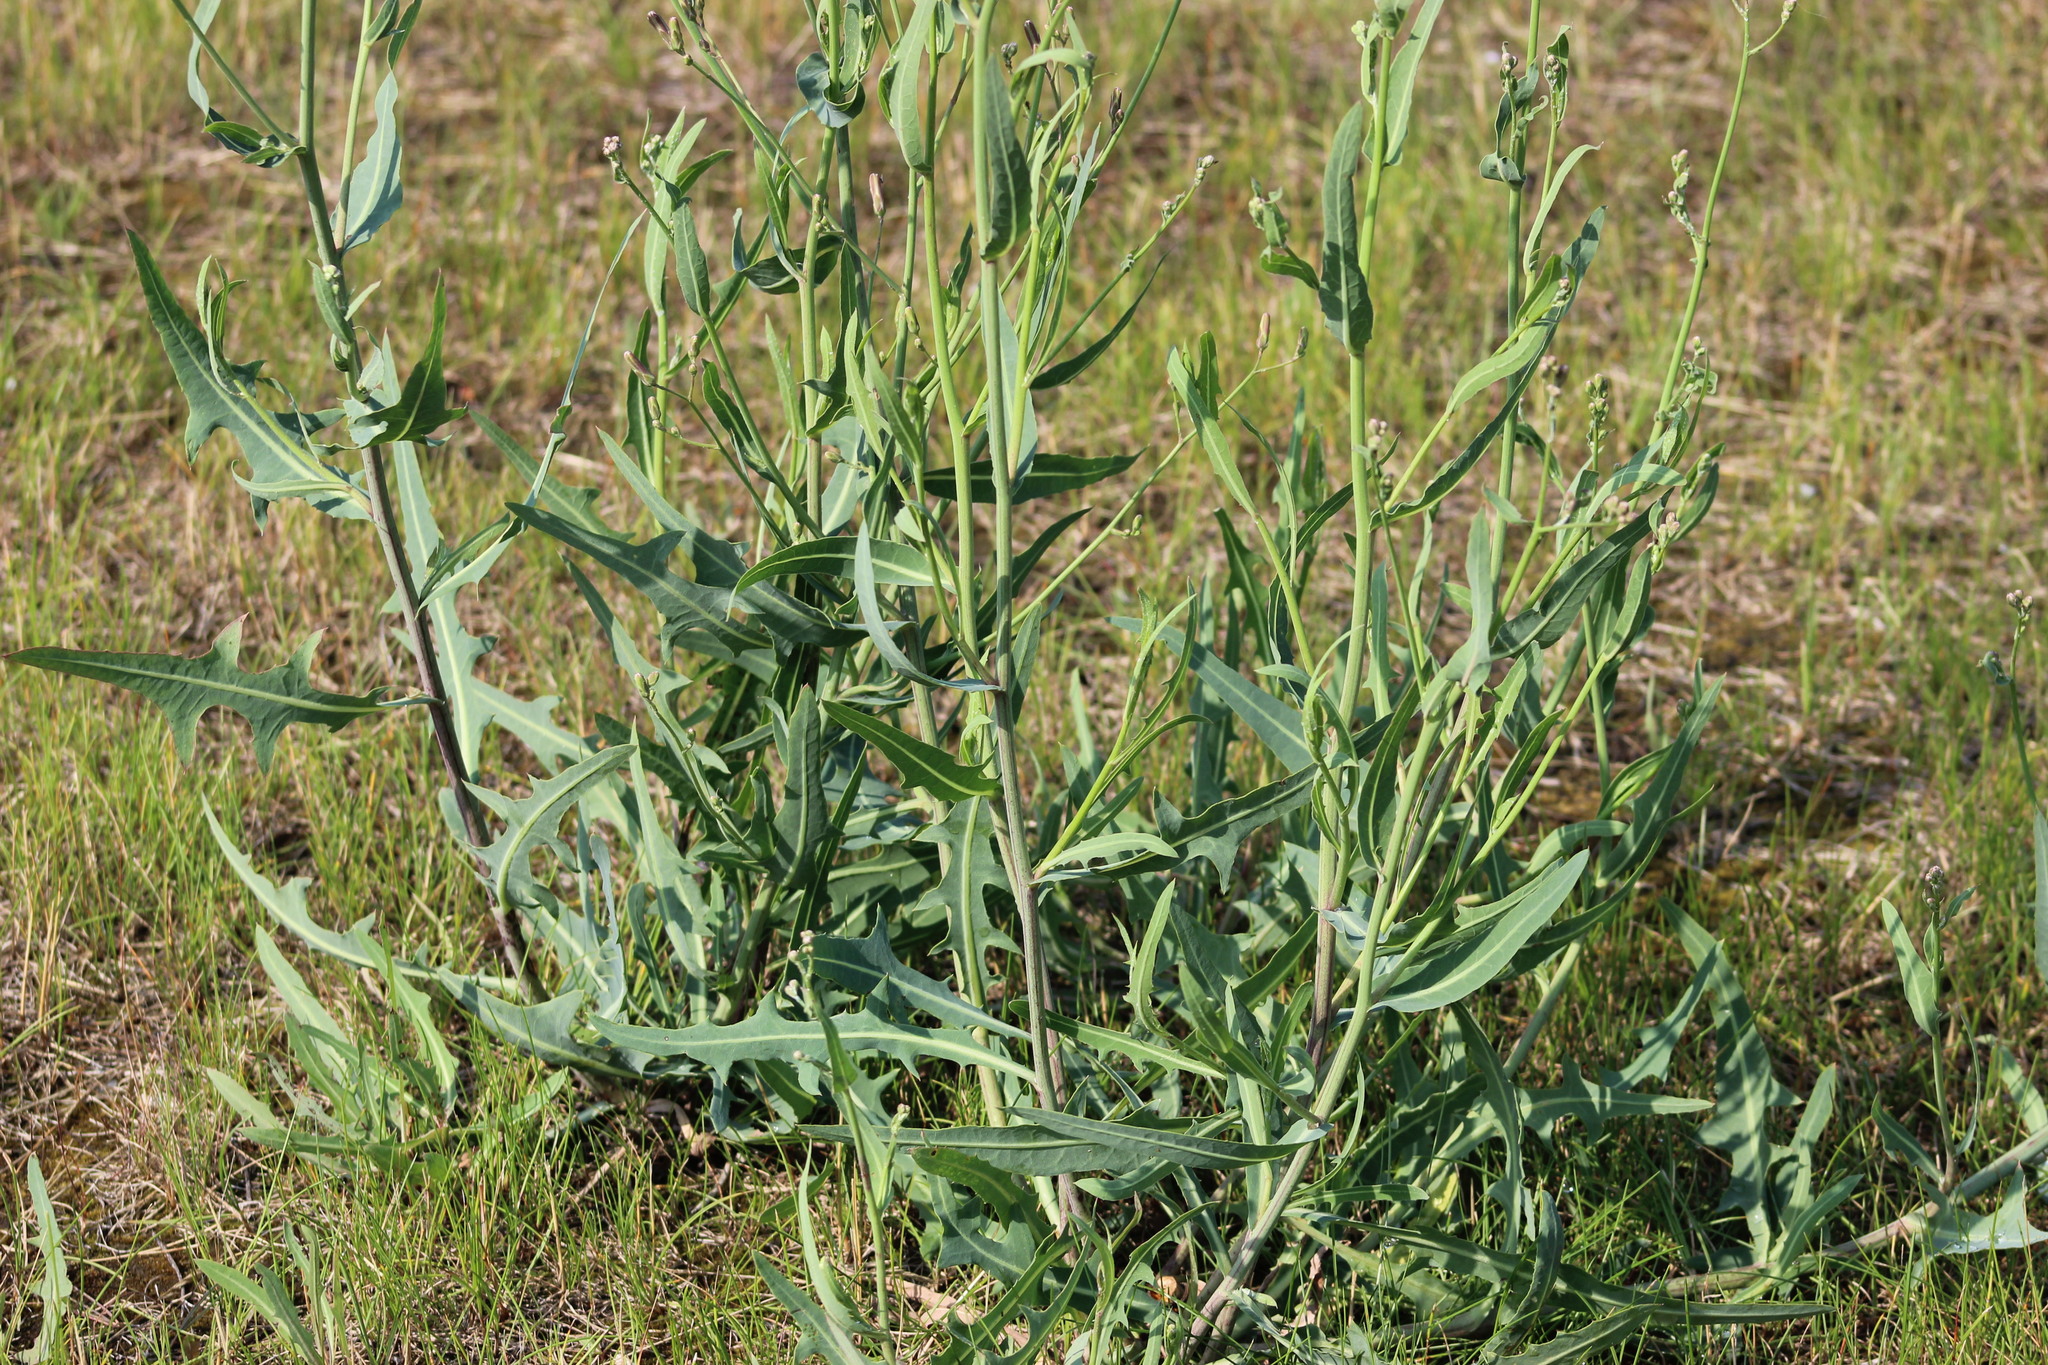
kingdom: Plantae
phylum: Tracheophyta
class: Magnoliopsida
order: Asterales
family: Asteraceae
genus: Lactuca
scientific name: Lactuca tatarica
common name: Blue lettuce
